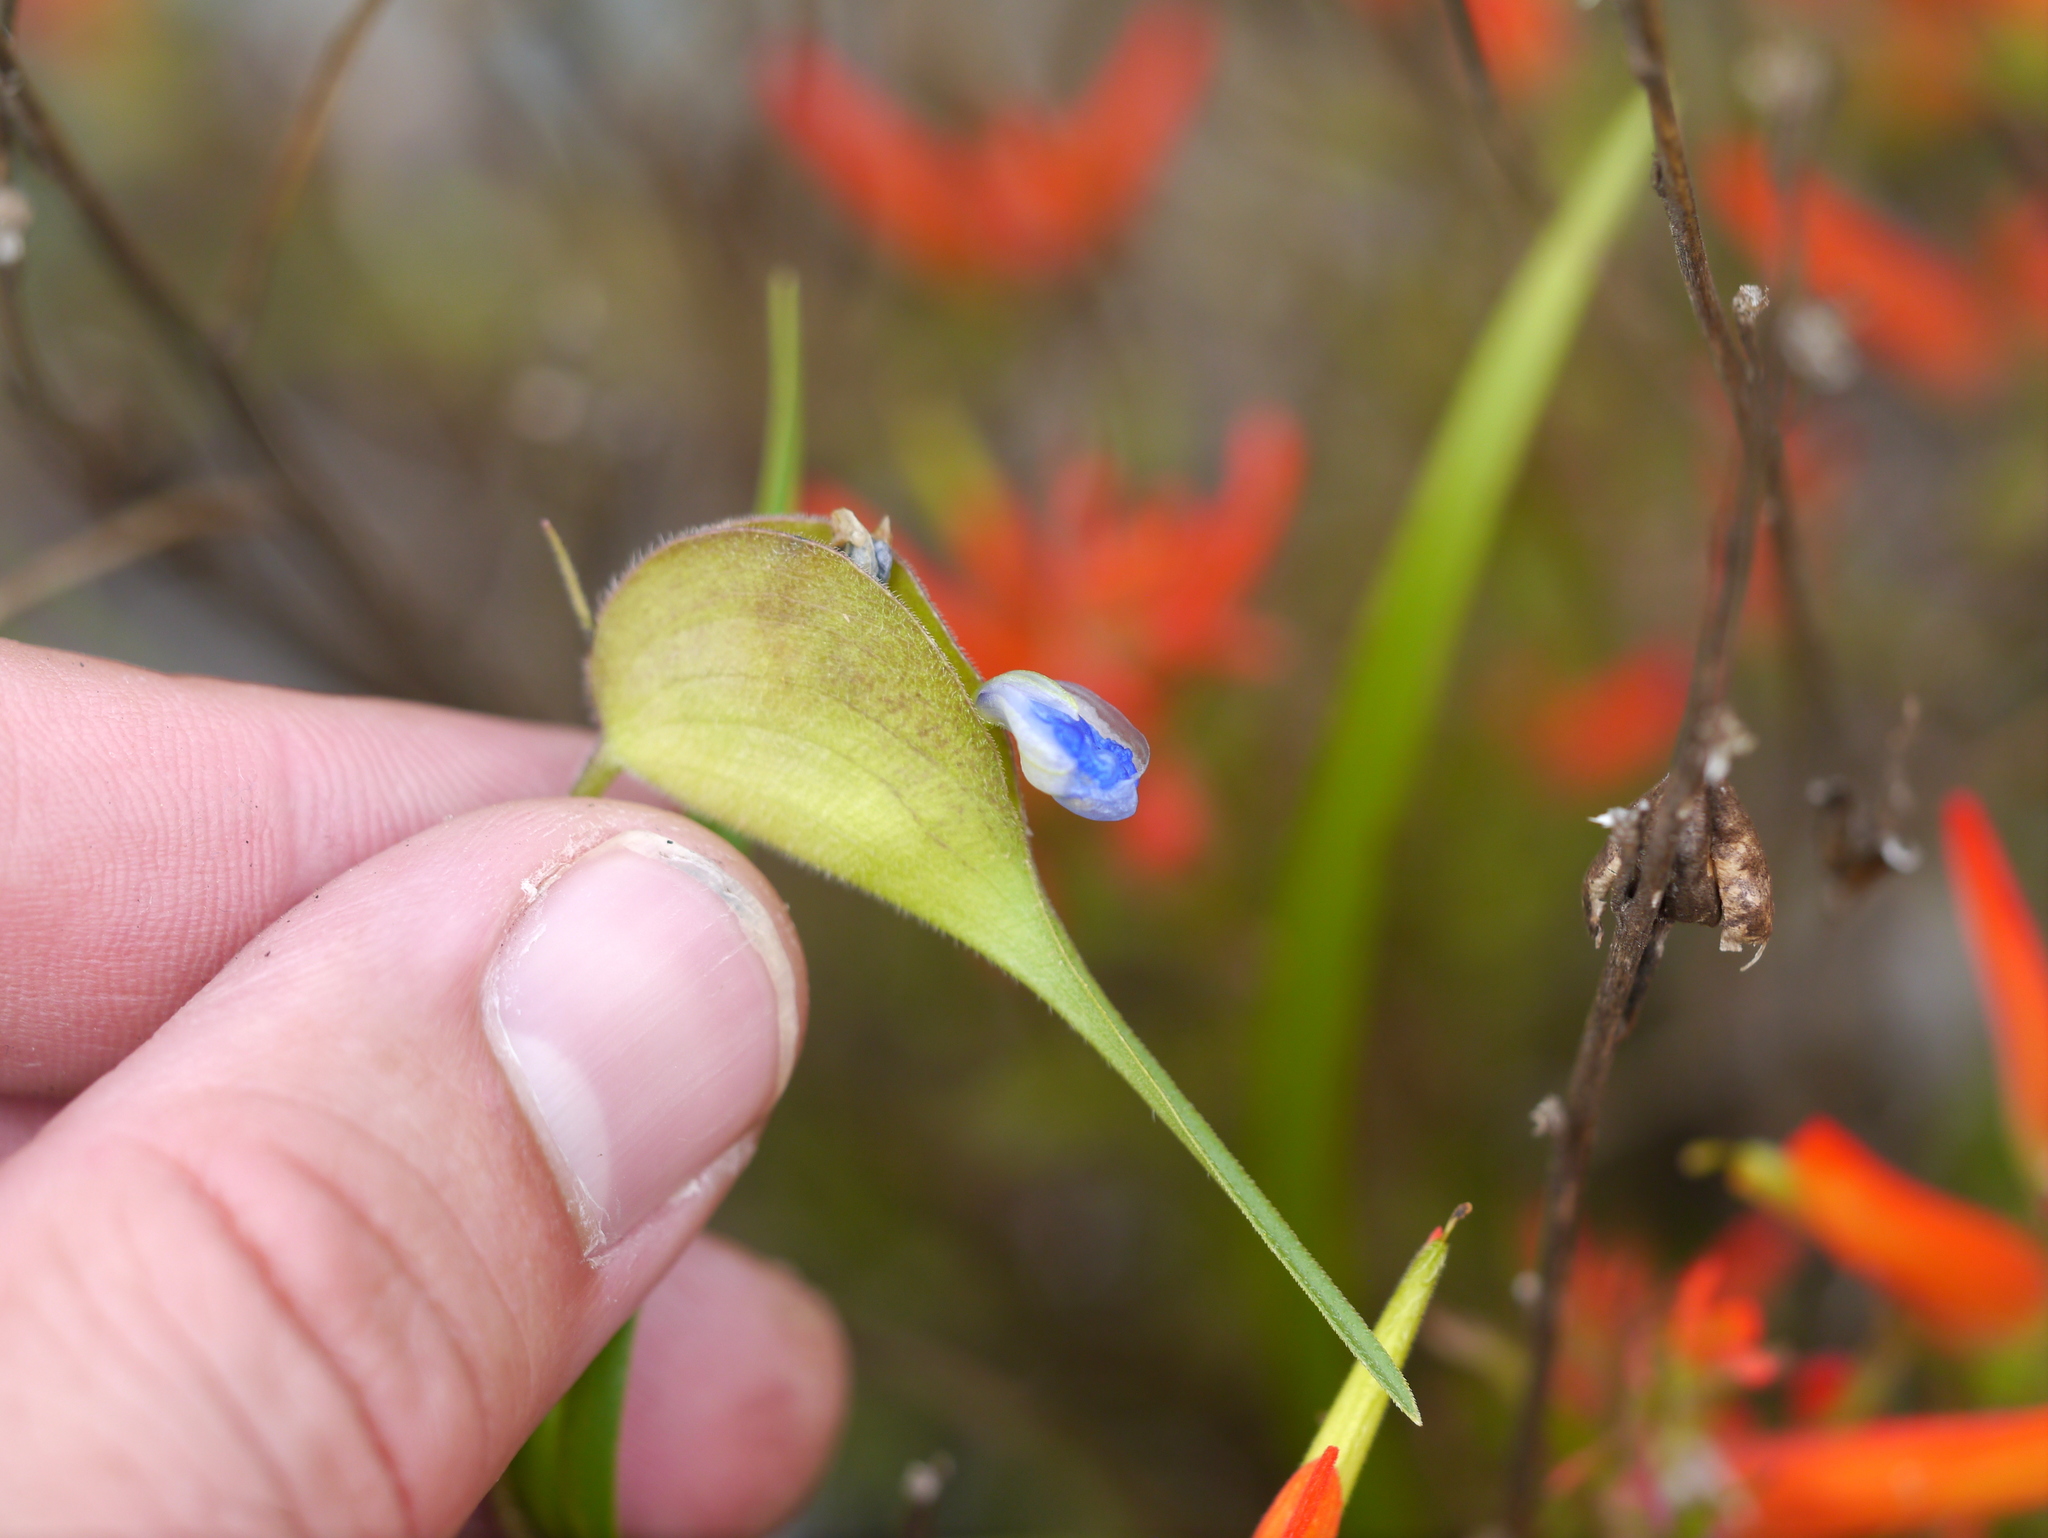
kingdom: Plantae
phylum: Tracheophyta
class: Liliopsida
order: Commelinales
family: Commelinaceae
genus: Commelina
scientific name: Commelina dianthifolia
